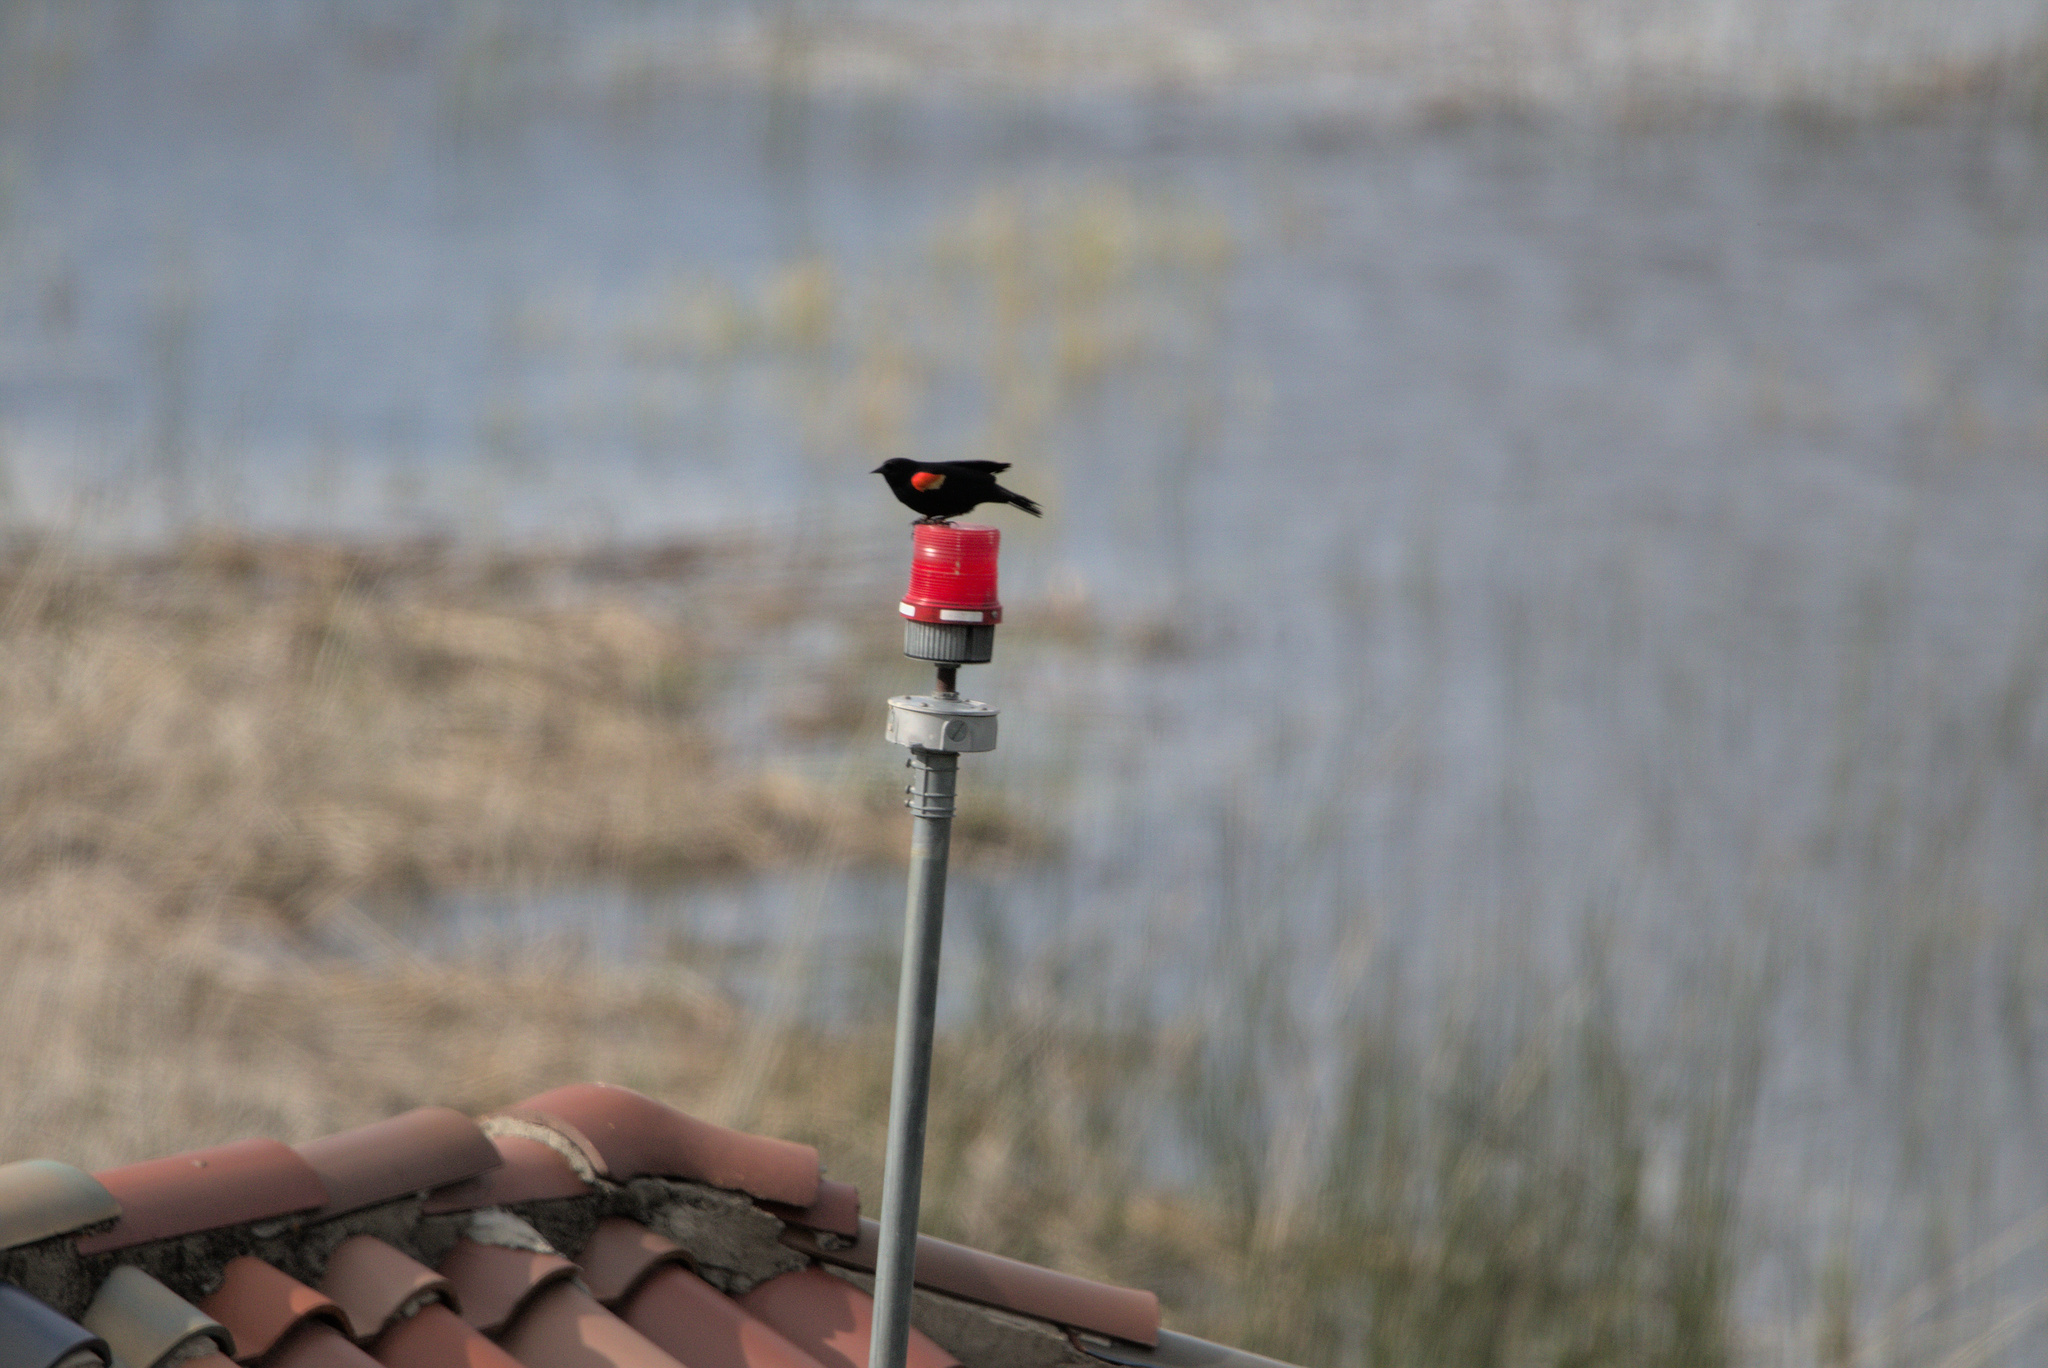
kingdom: Animalia
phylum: Chordata
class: Aves
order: Passeriformes
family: Icteridae
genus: Agelaius
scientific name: Agelaius phoeniceus
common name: Red-winged blackbird
